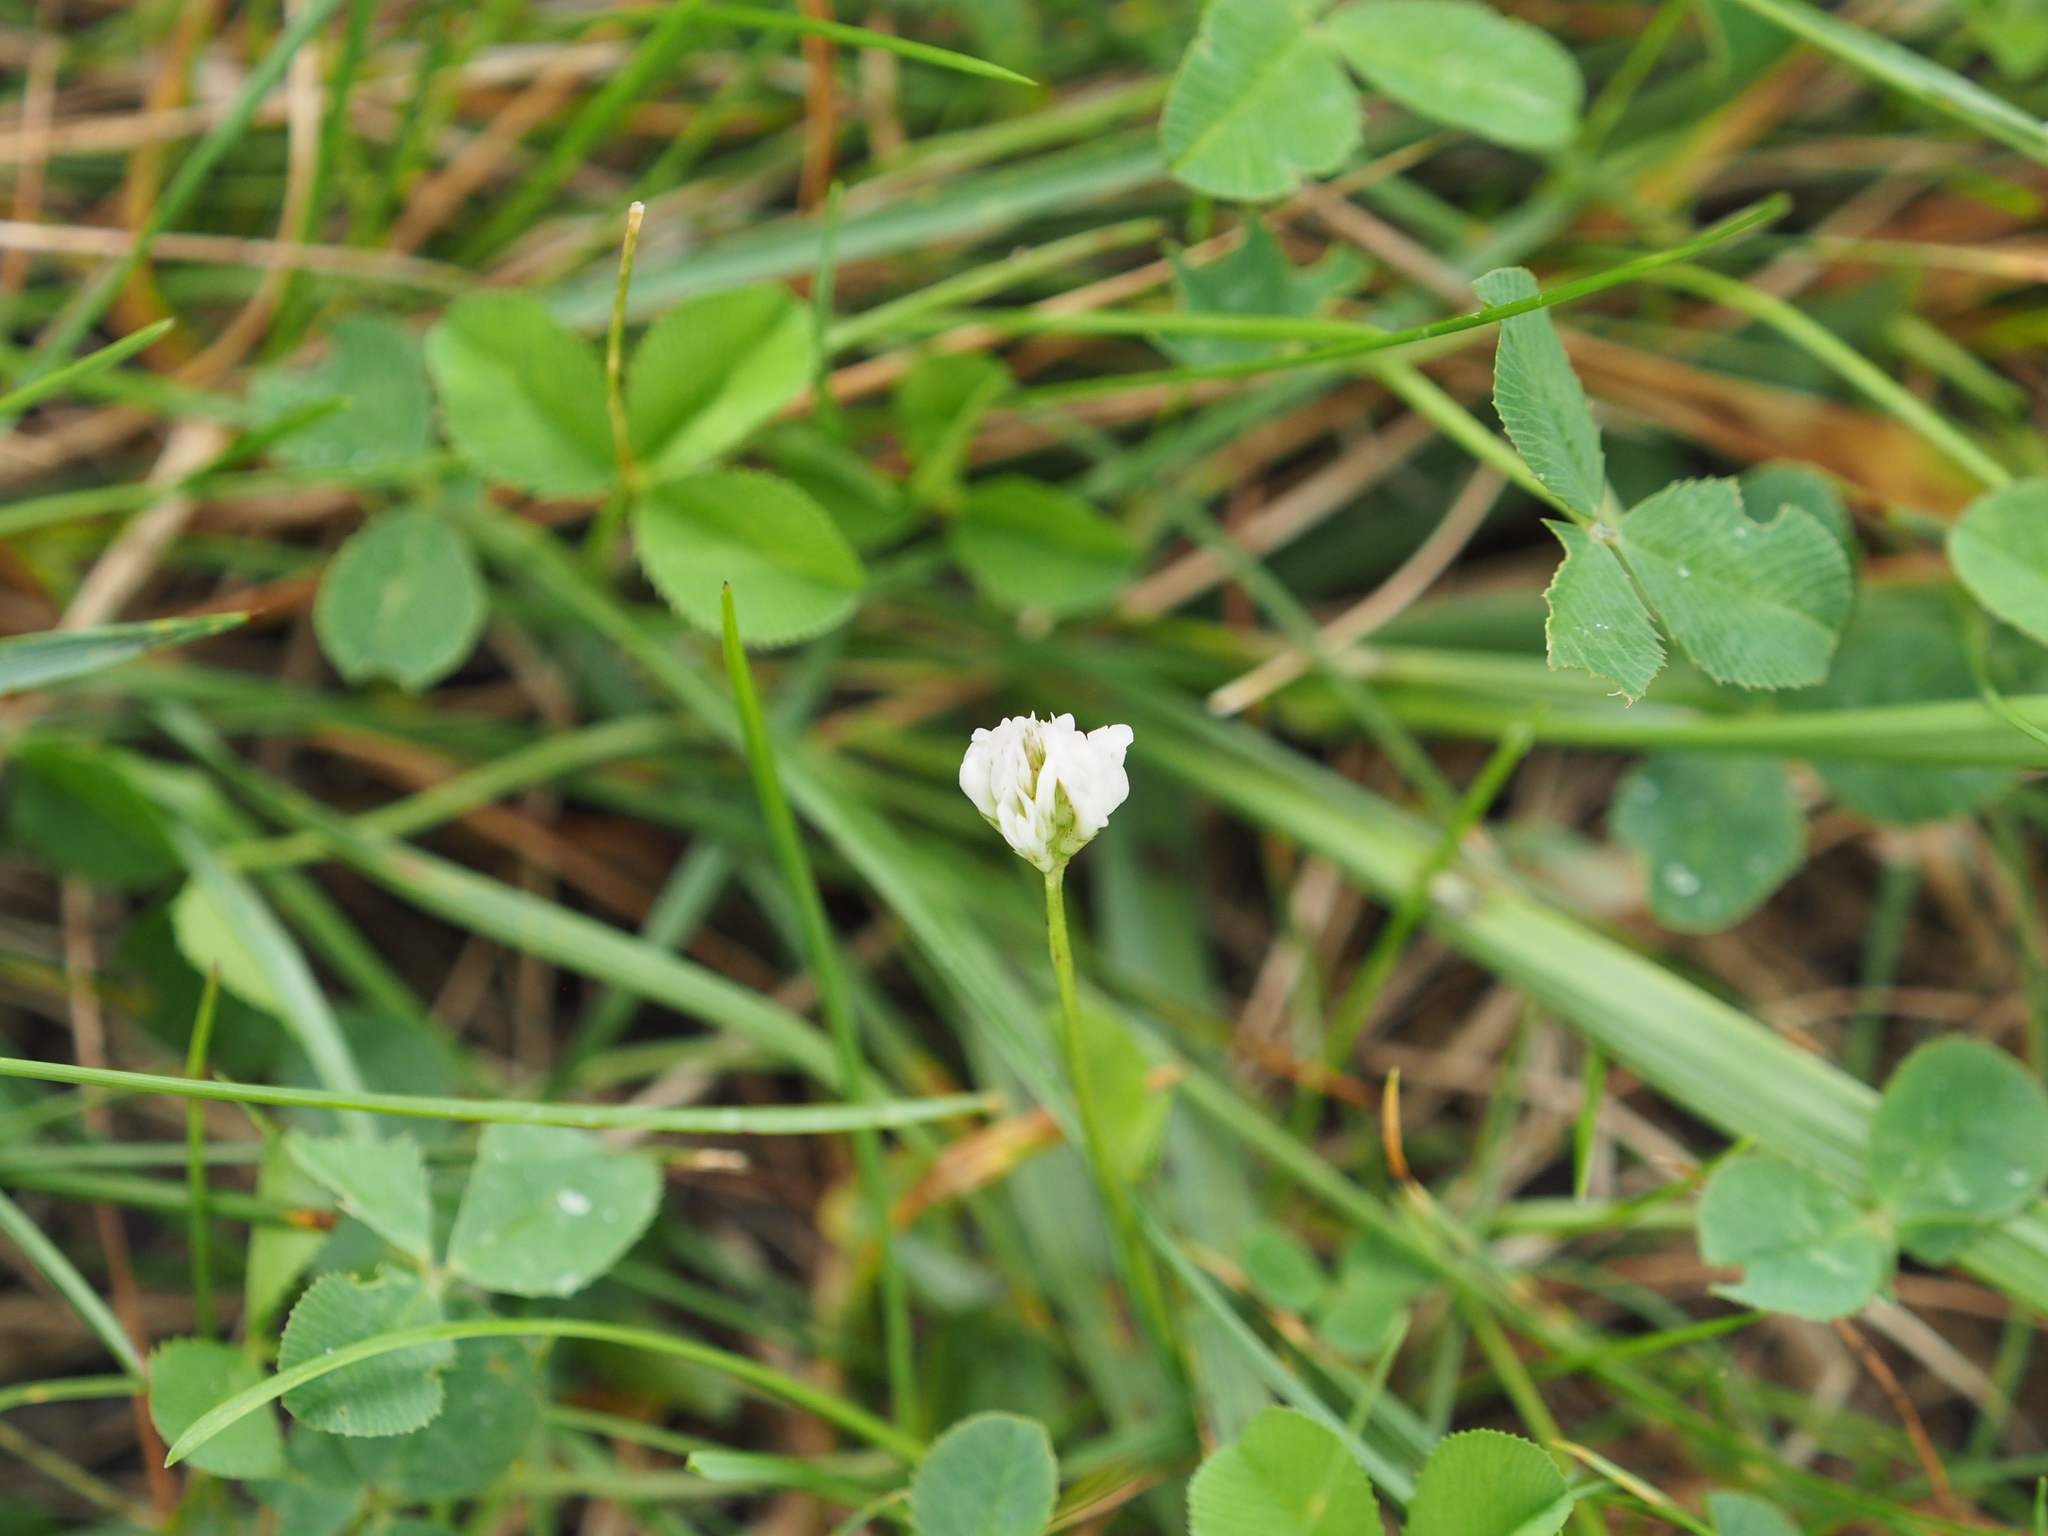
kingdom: Plantae
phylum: Tracheophyta
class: Magnoliopsida
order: Fabales
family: Fabaceae
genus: Trifolium
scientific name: Trifolium repens
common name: White clover
